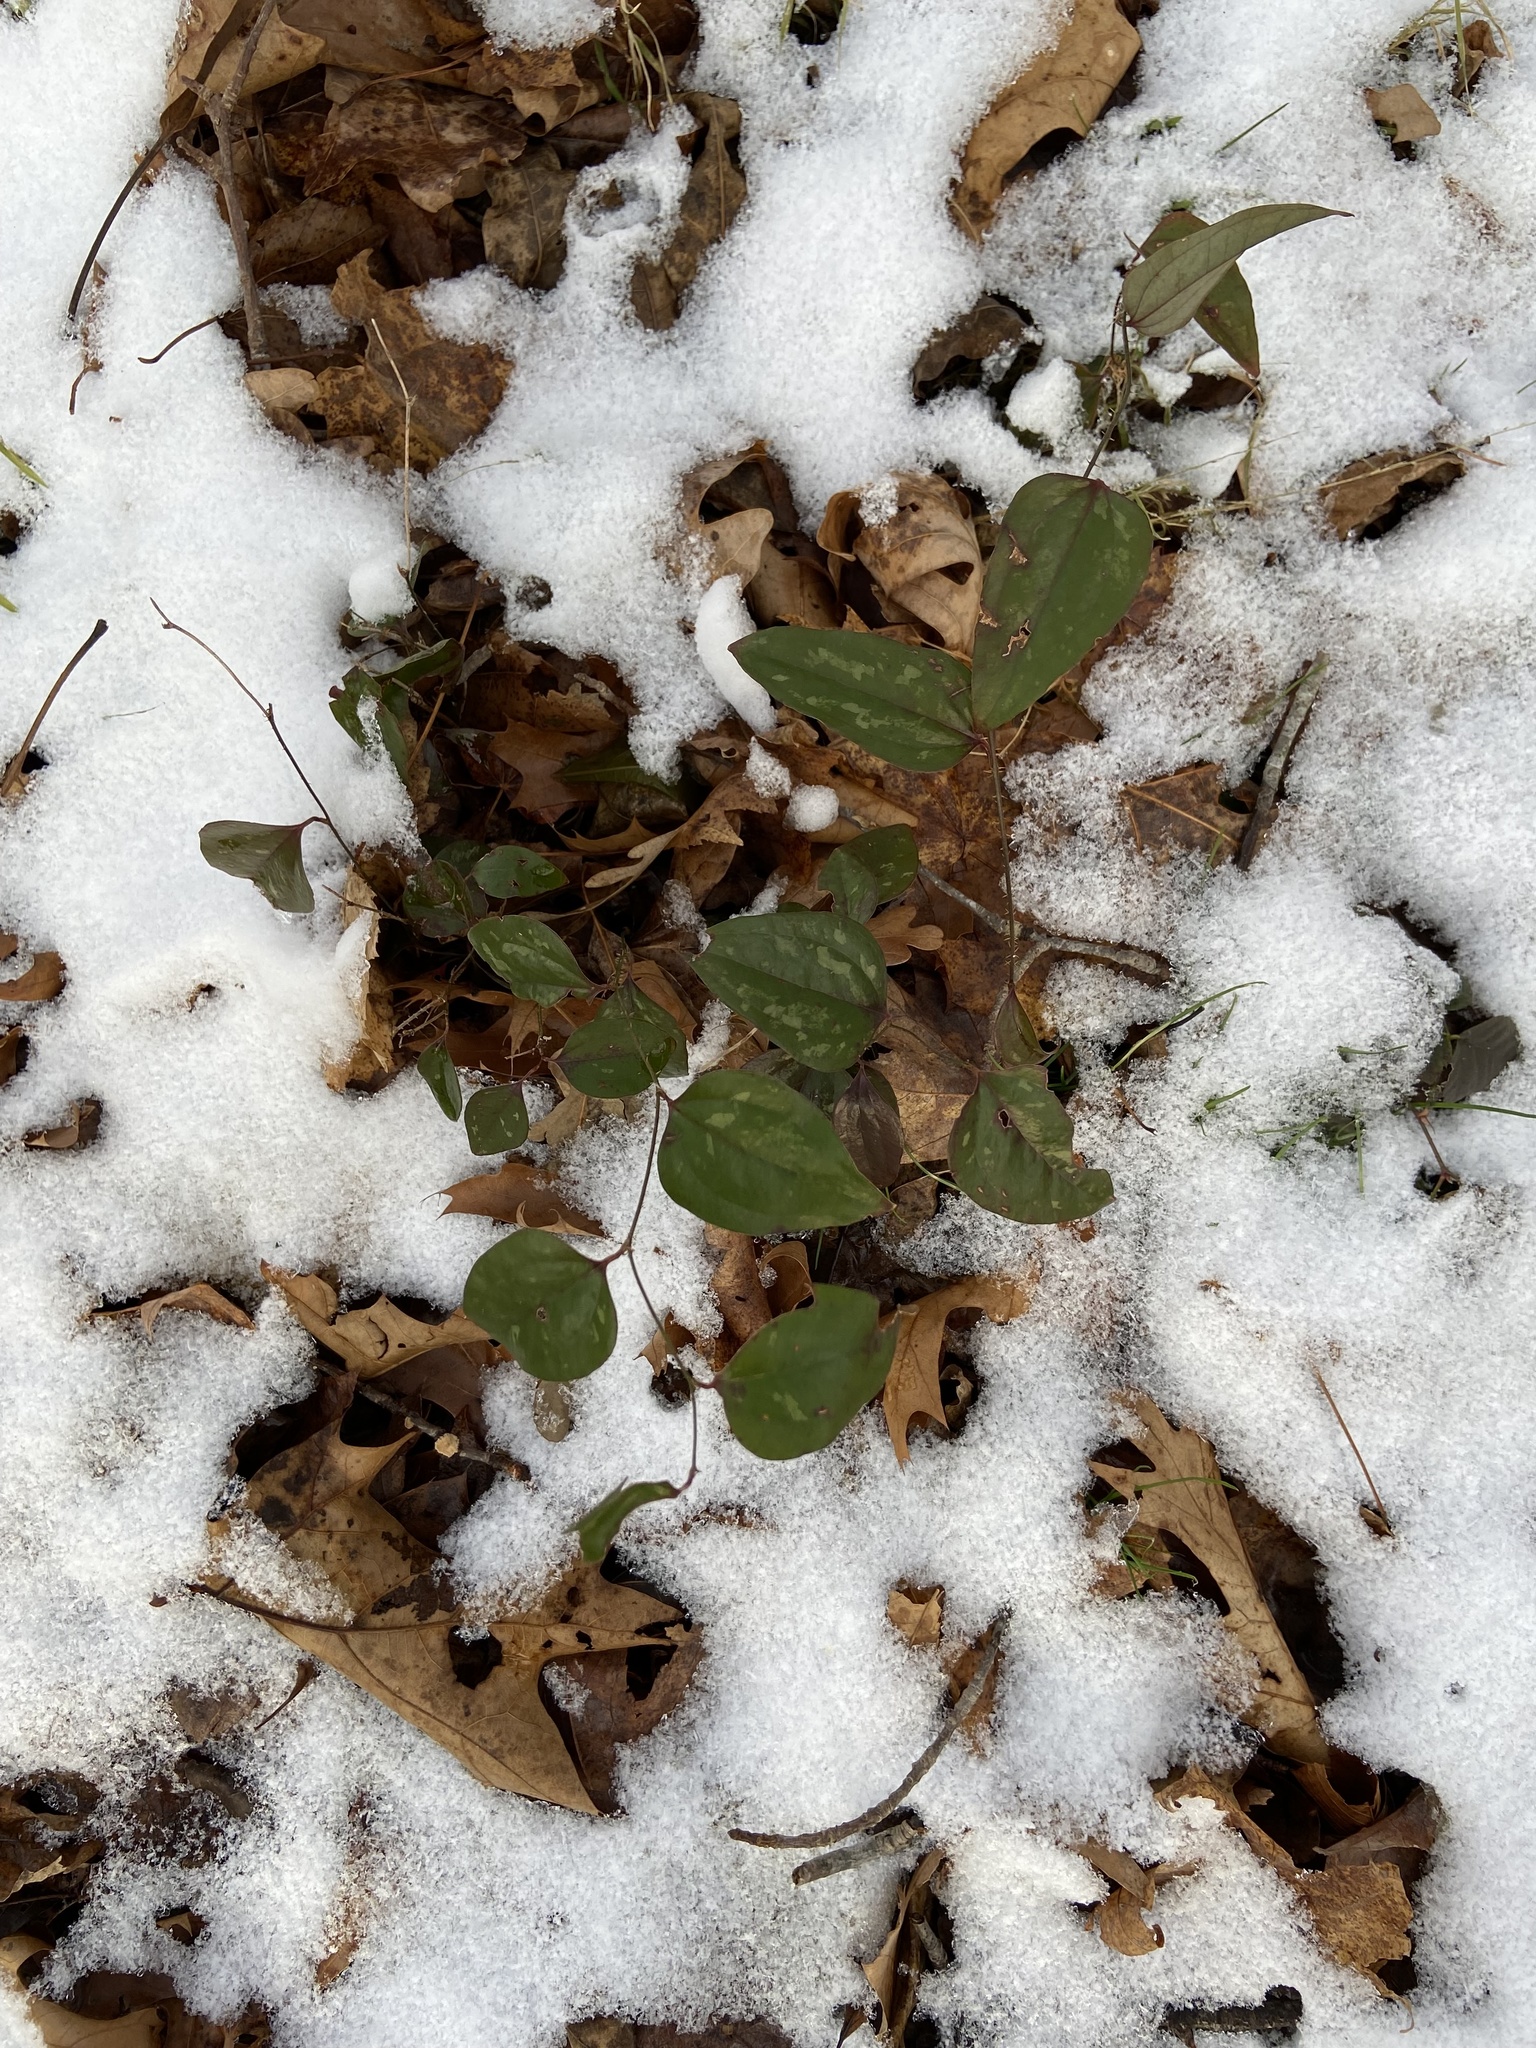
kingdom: Plantae
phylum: Tracheophyta
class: Liliopsida
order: Liliales
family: Smilacaceae
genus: Smilax
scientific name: Smilax glauca
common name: Cat greenbrier
